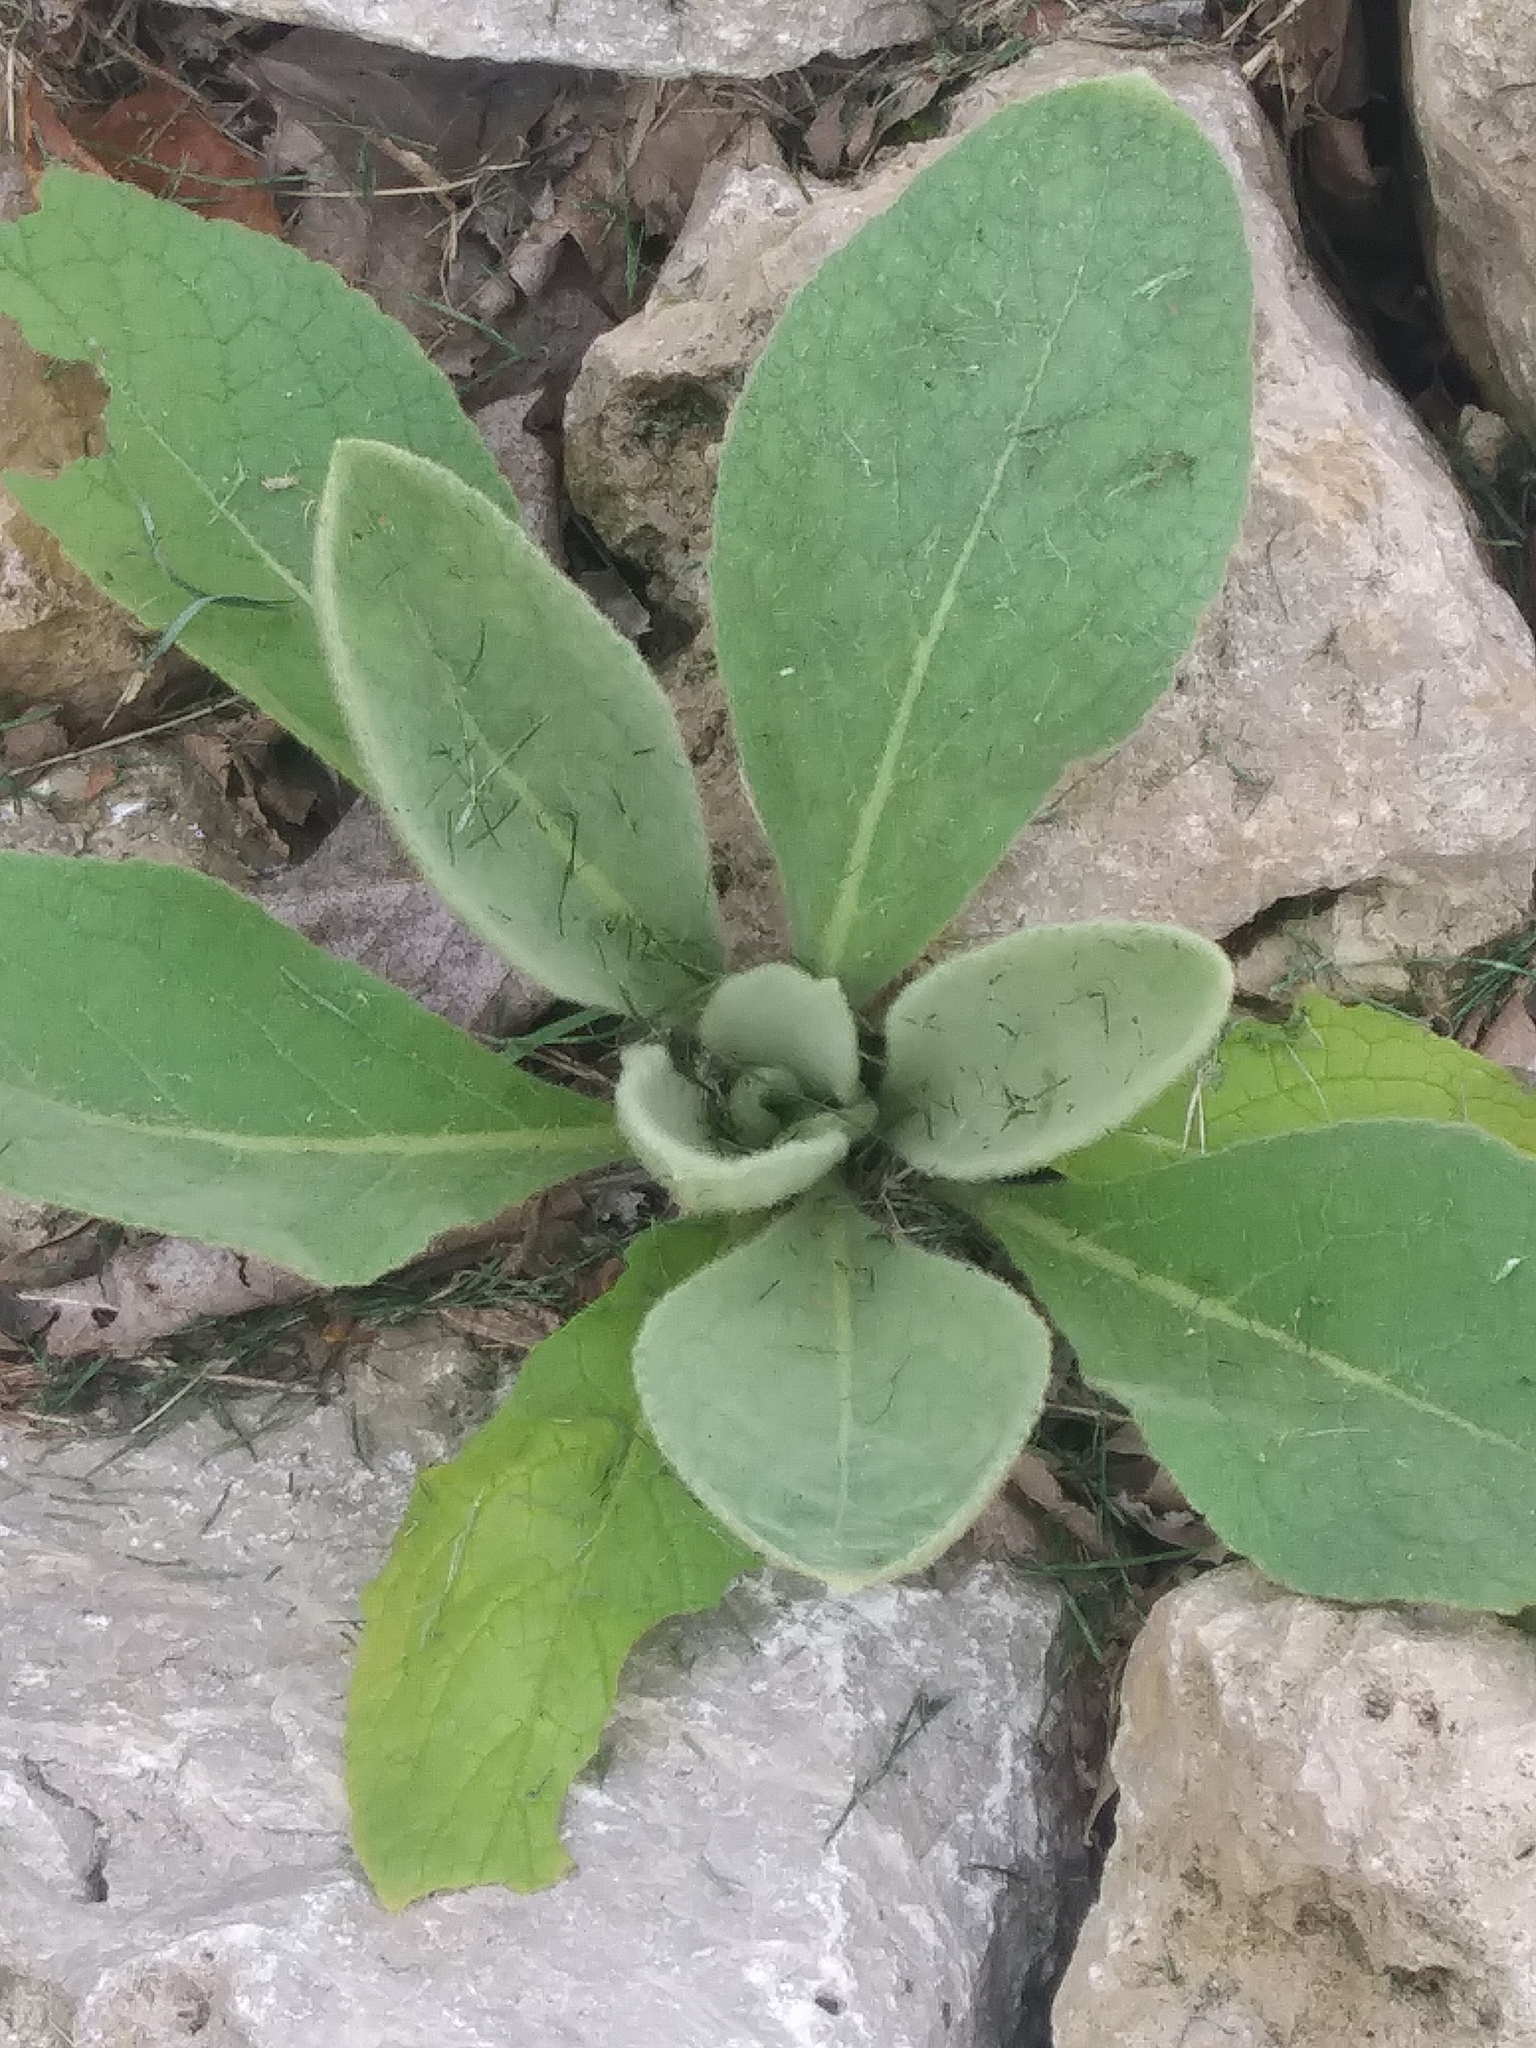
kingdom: Plantae
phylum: Tracheophyta
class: Magnoliopsida
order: Lamiales
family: Scrophulariaceae
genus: Verbascum
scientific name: Verbascum thapsus
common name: Common mullein
